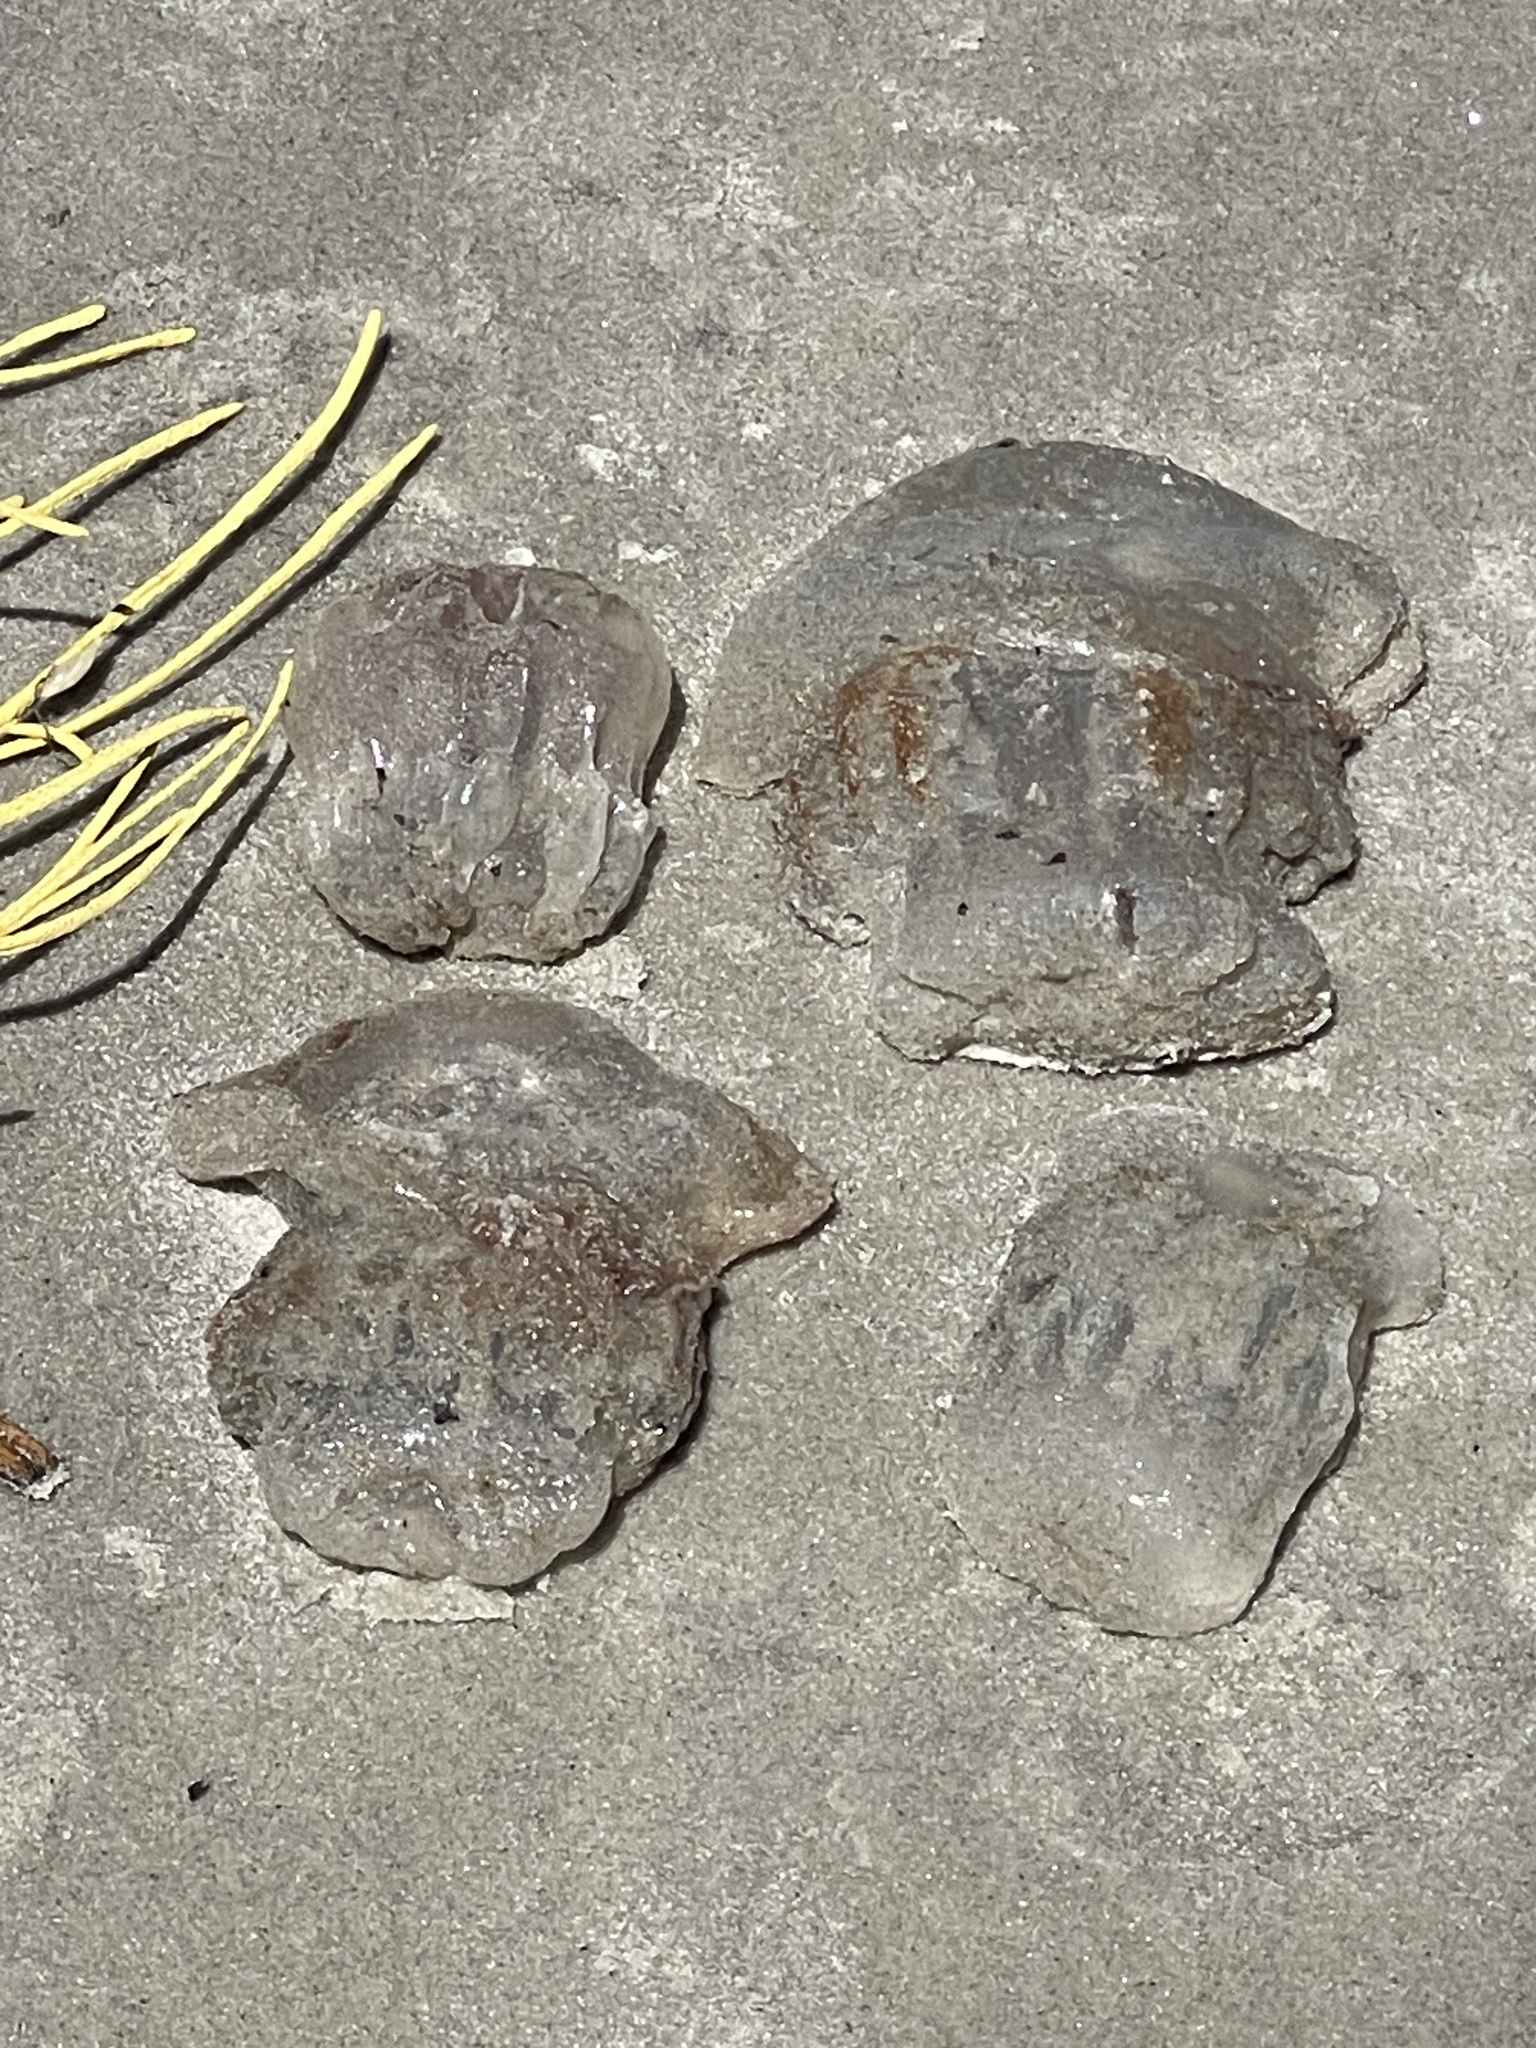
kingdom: Animalia
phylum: Cnidaria
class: Scyphozoa
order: Rhizostomeae
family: Stomolophidae
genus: Stomolophus
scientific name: Stomolophus meleagris
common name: Cabbagehead
